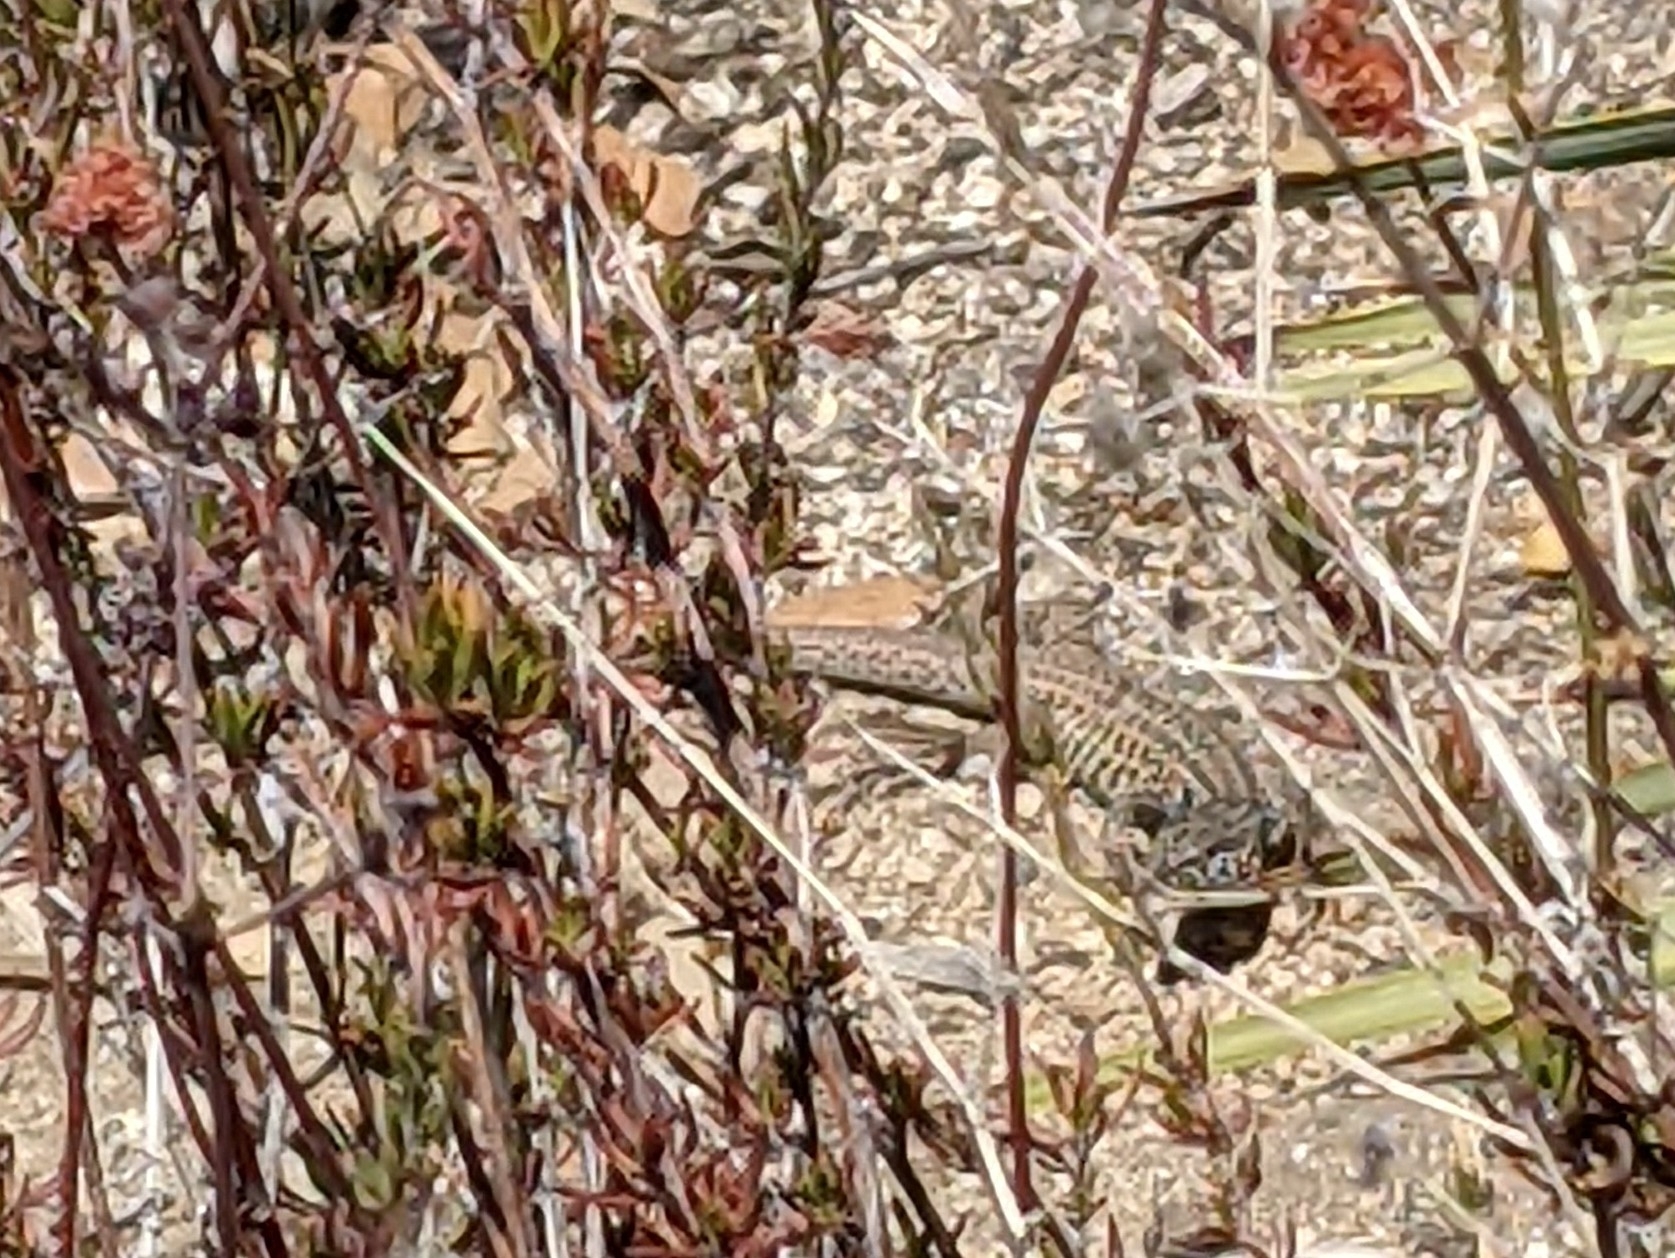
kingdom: Animalia
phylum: Chordata
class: Squamata
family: Teiidae
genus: Aspidoscelis
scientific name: Aspidoscelis tigris
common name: Tiger whiptail
